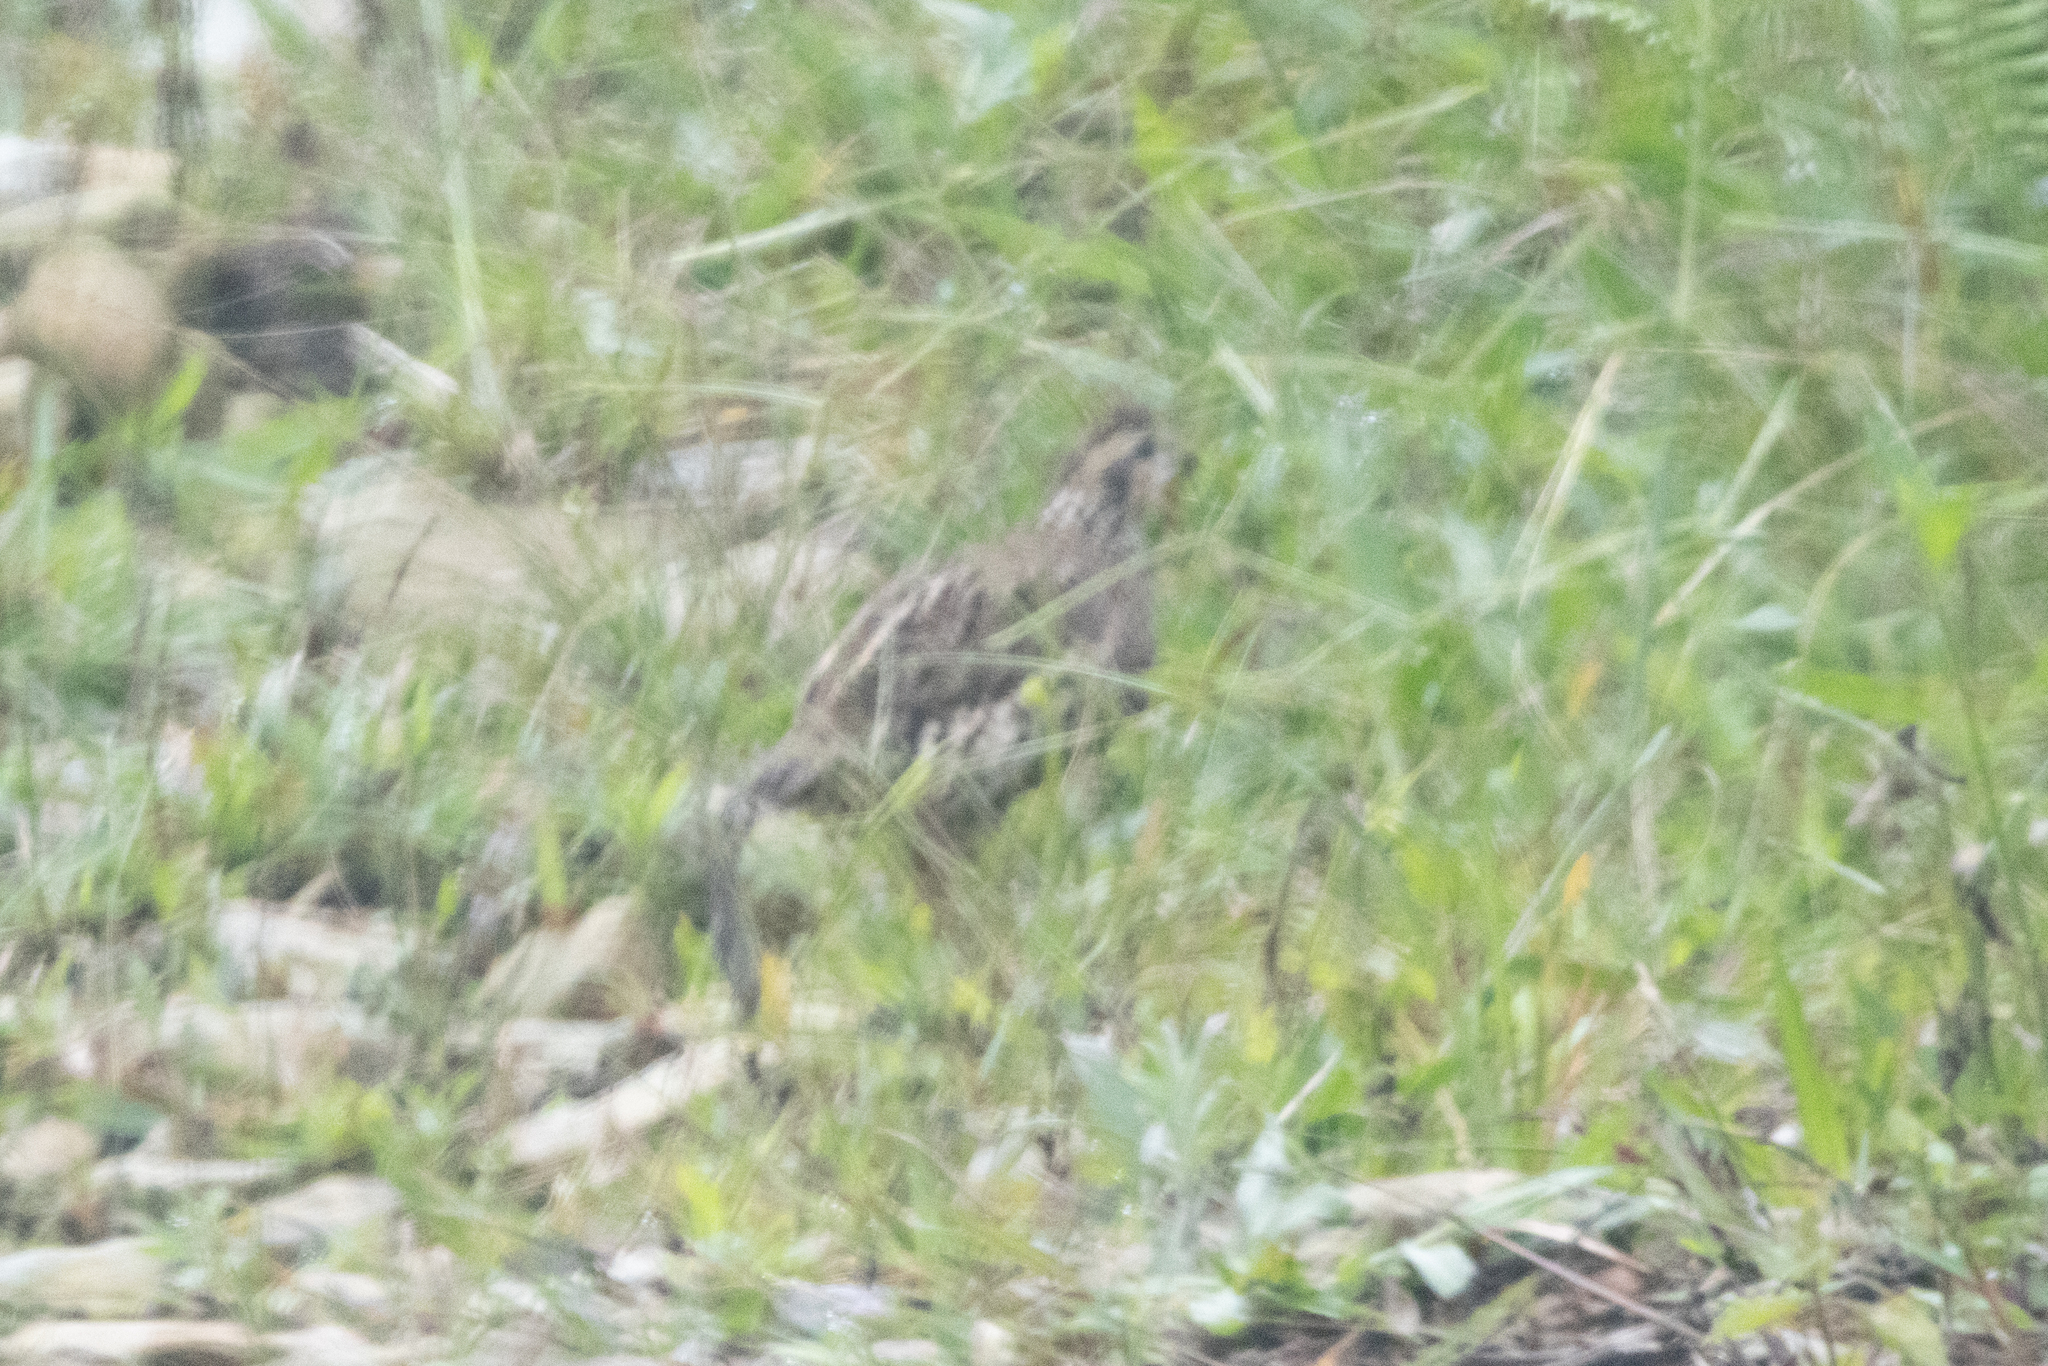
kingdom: Animalia
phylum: Chordata
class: Aves
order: Galliformes
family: Odontophoridae
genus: Colinus
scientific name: Colinus cristatus
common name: Crested bobwhite
